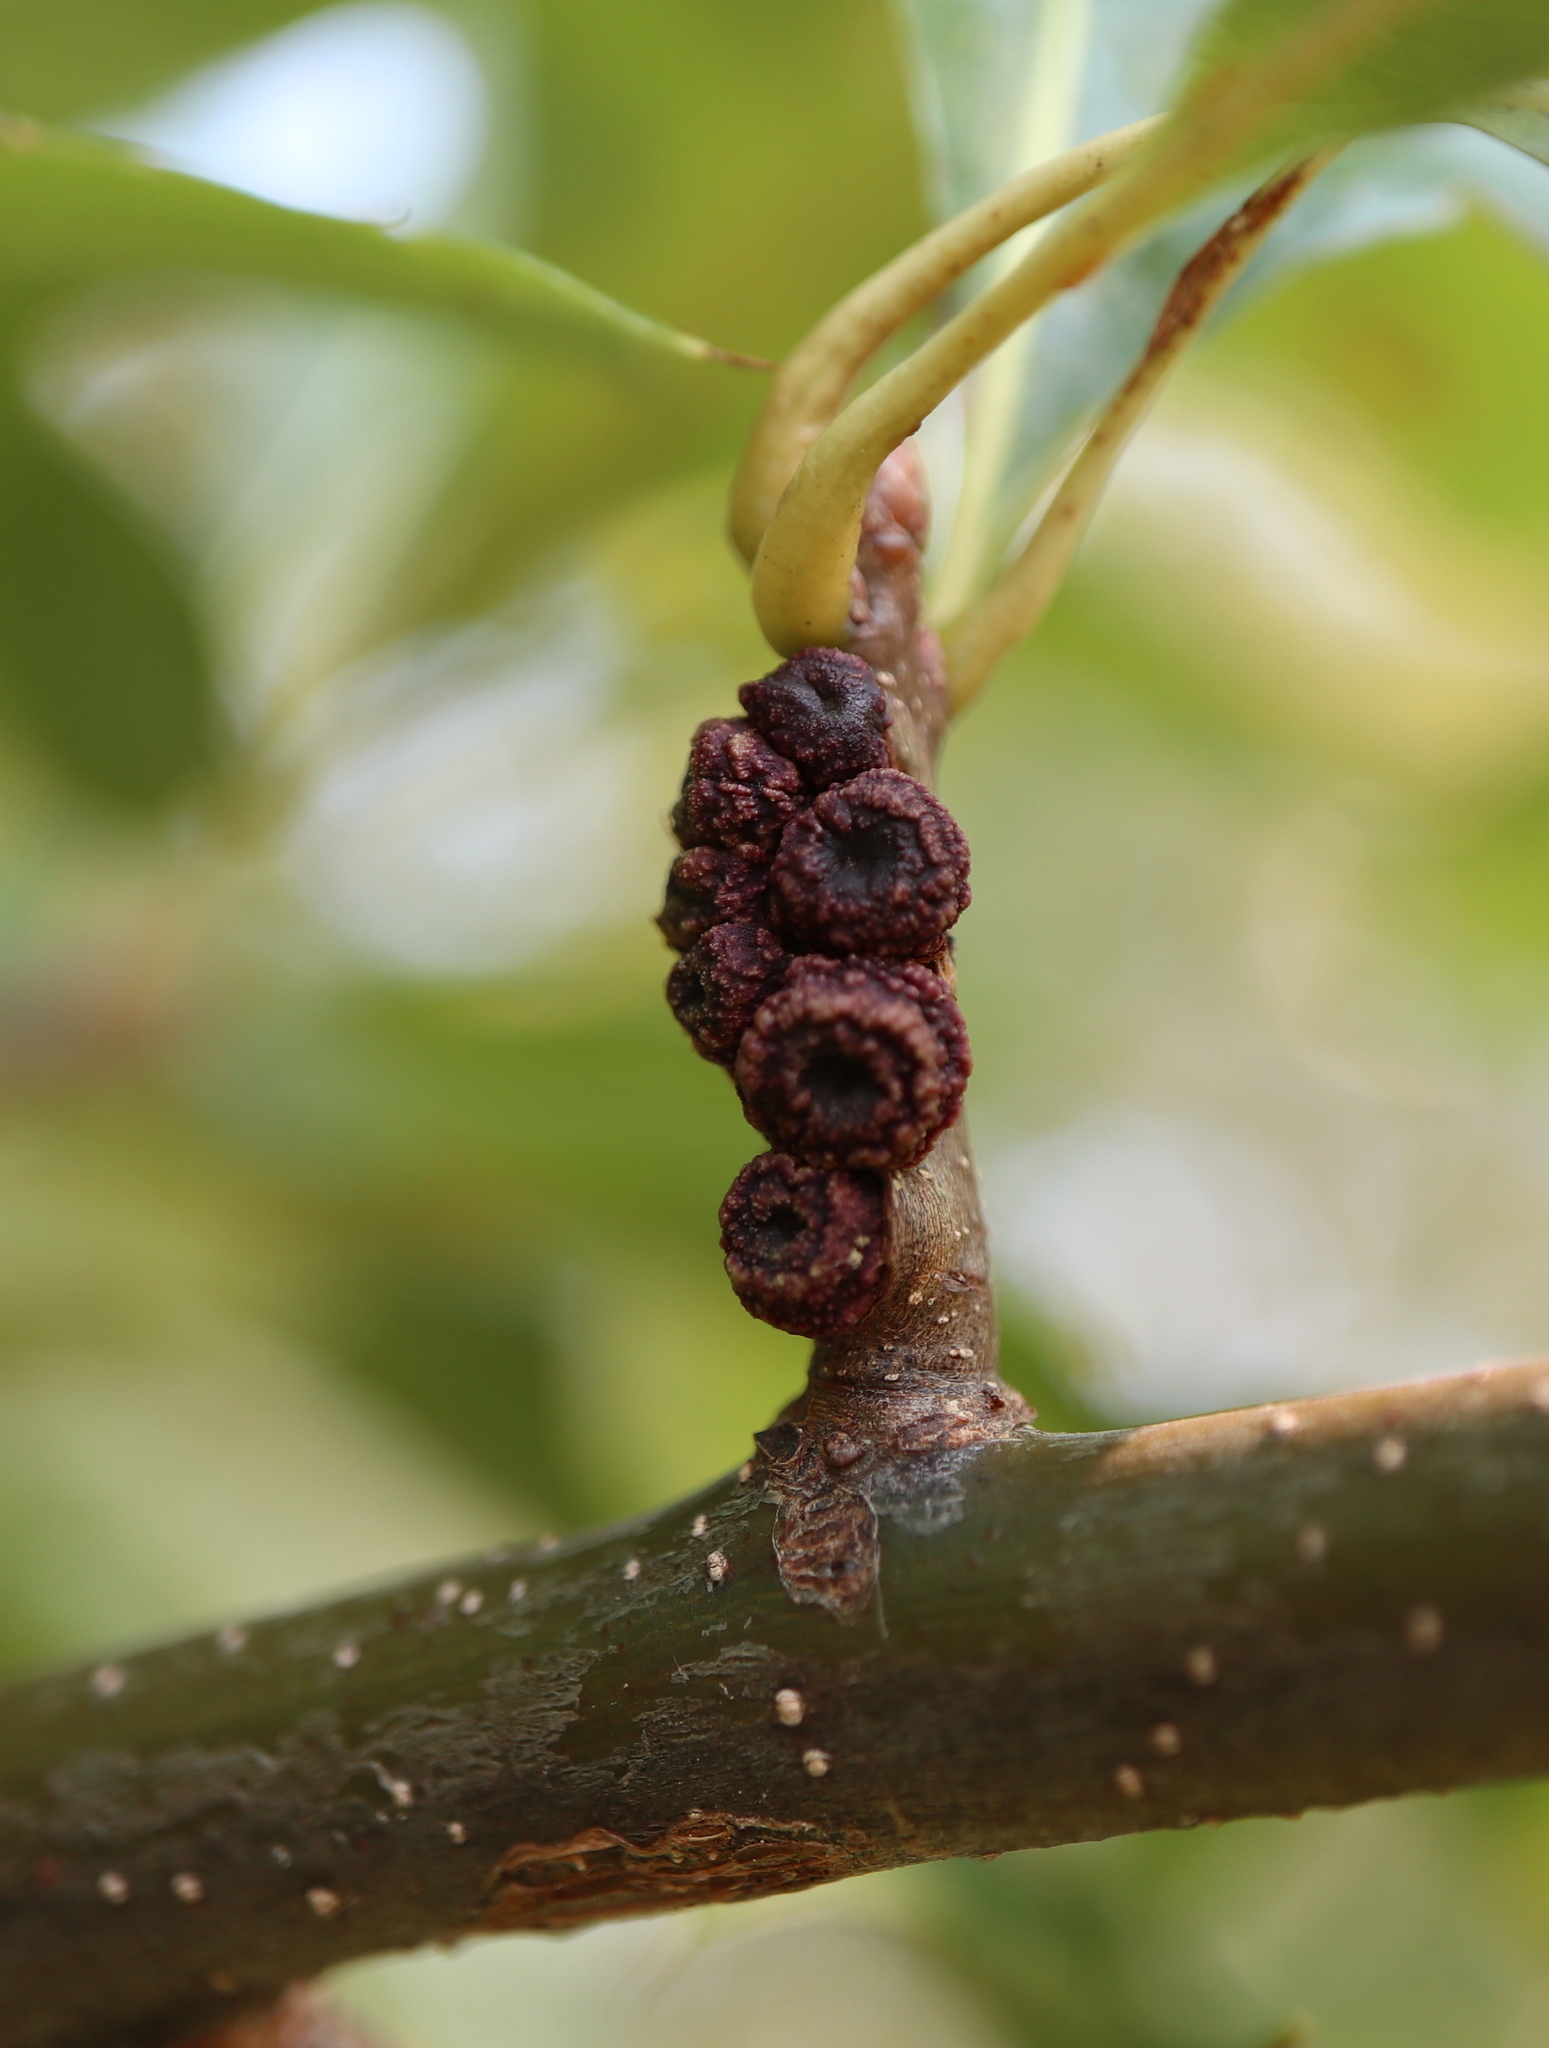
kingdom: Animalia
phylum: Arthropoda
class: Insecta
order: Hymenoptera
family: Cynipidae
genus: Kokkocynips
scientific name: Kokkocynips difficilis
